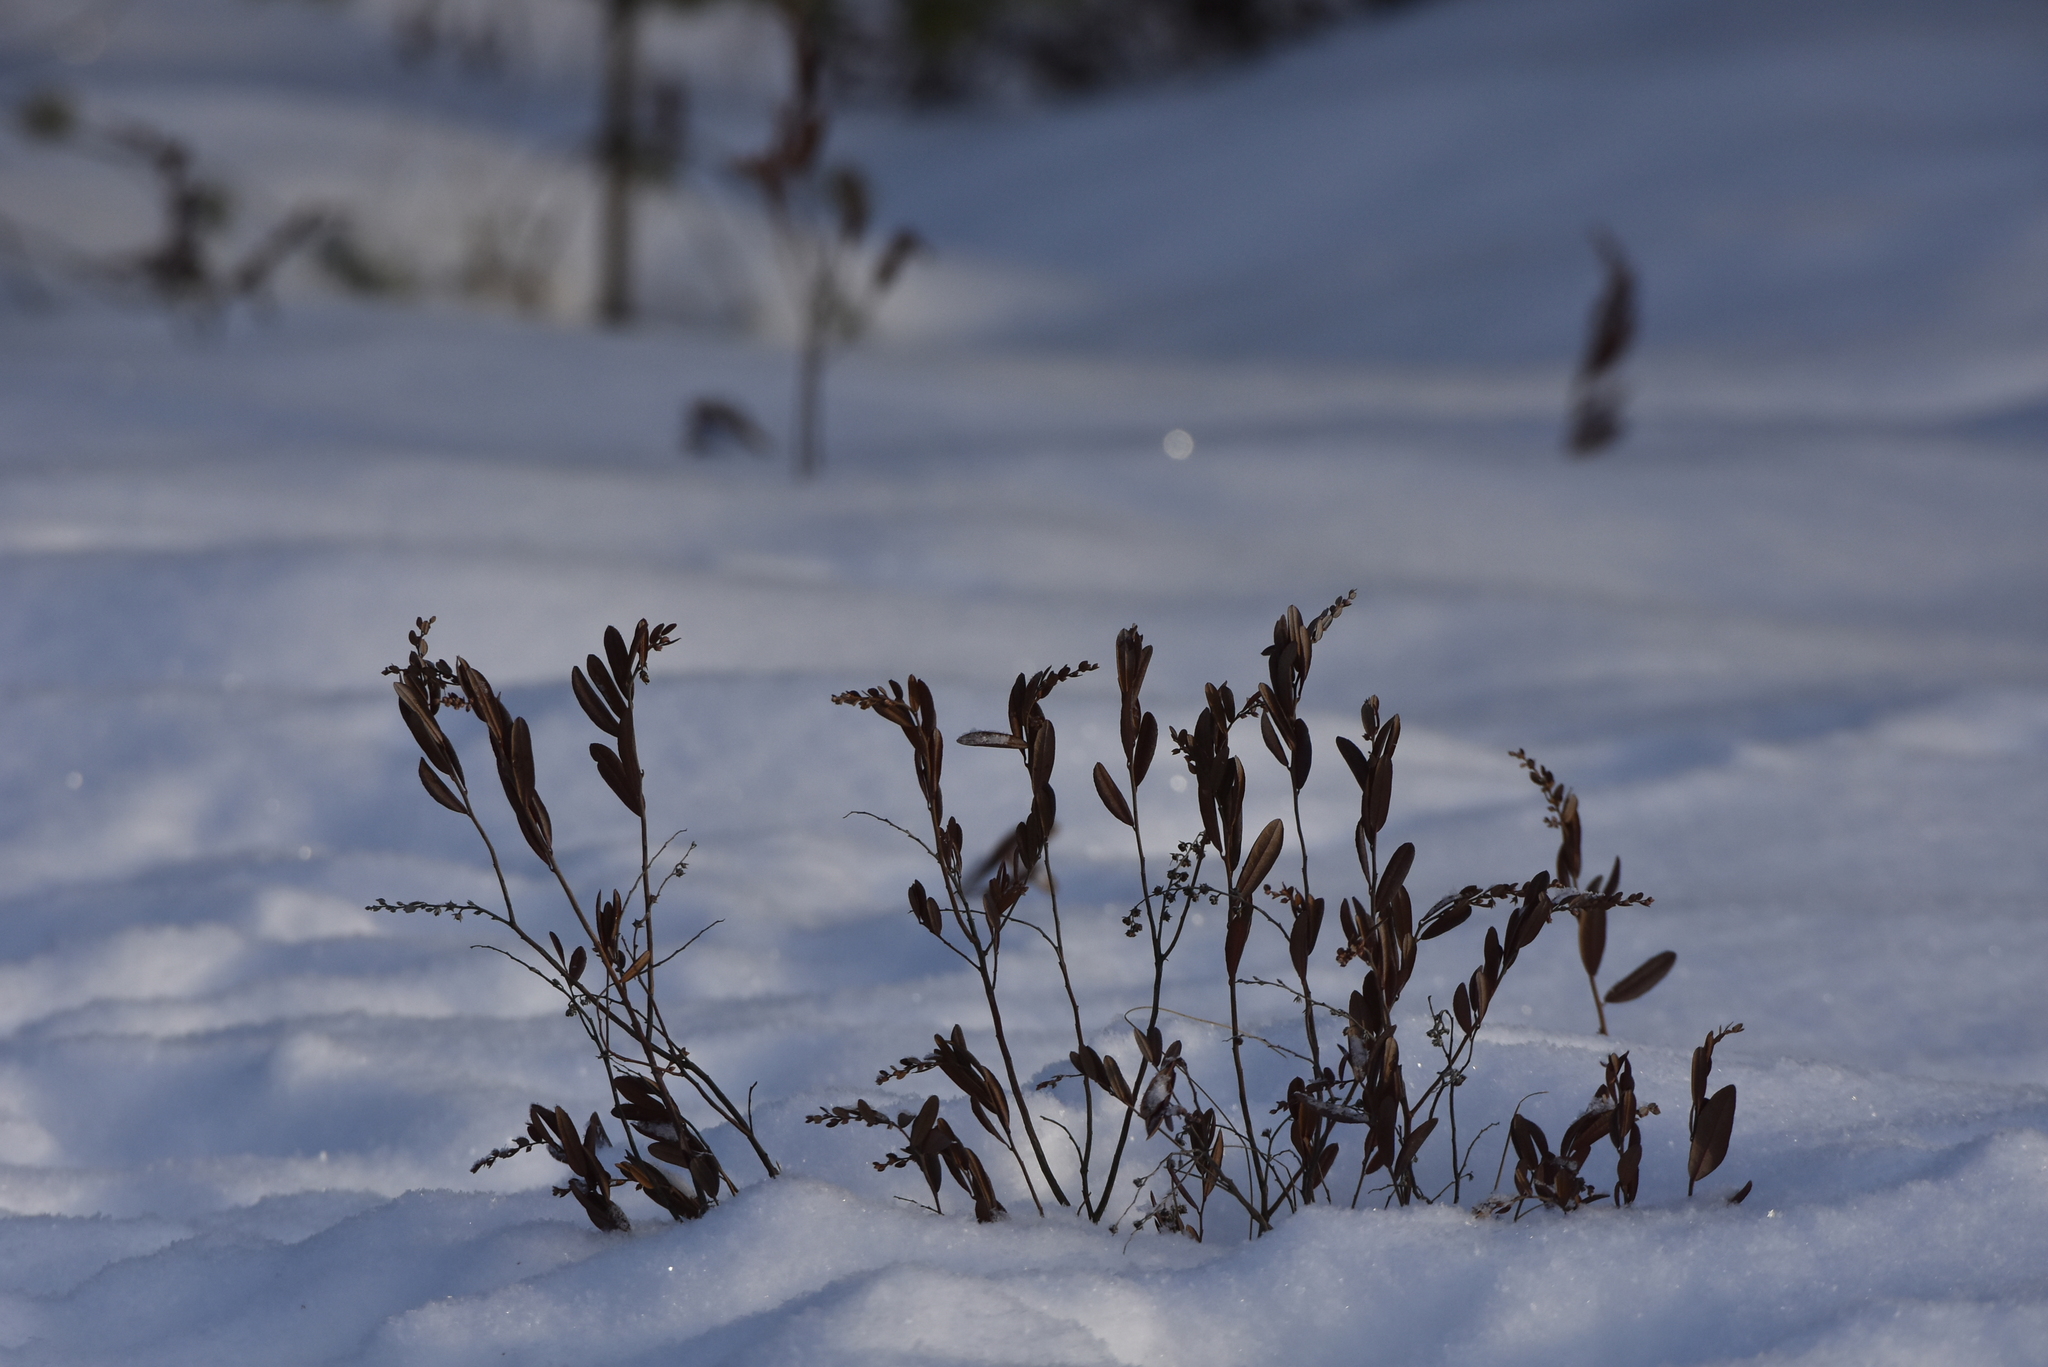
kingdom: Plantae
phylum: Tracheophyta
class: Magnoliopsida
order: Ericales
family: Ericaceae
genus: Chamaedaphne
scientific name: Chamaedaphne calyculata
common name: Leatherleaf
